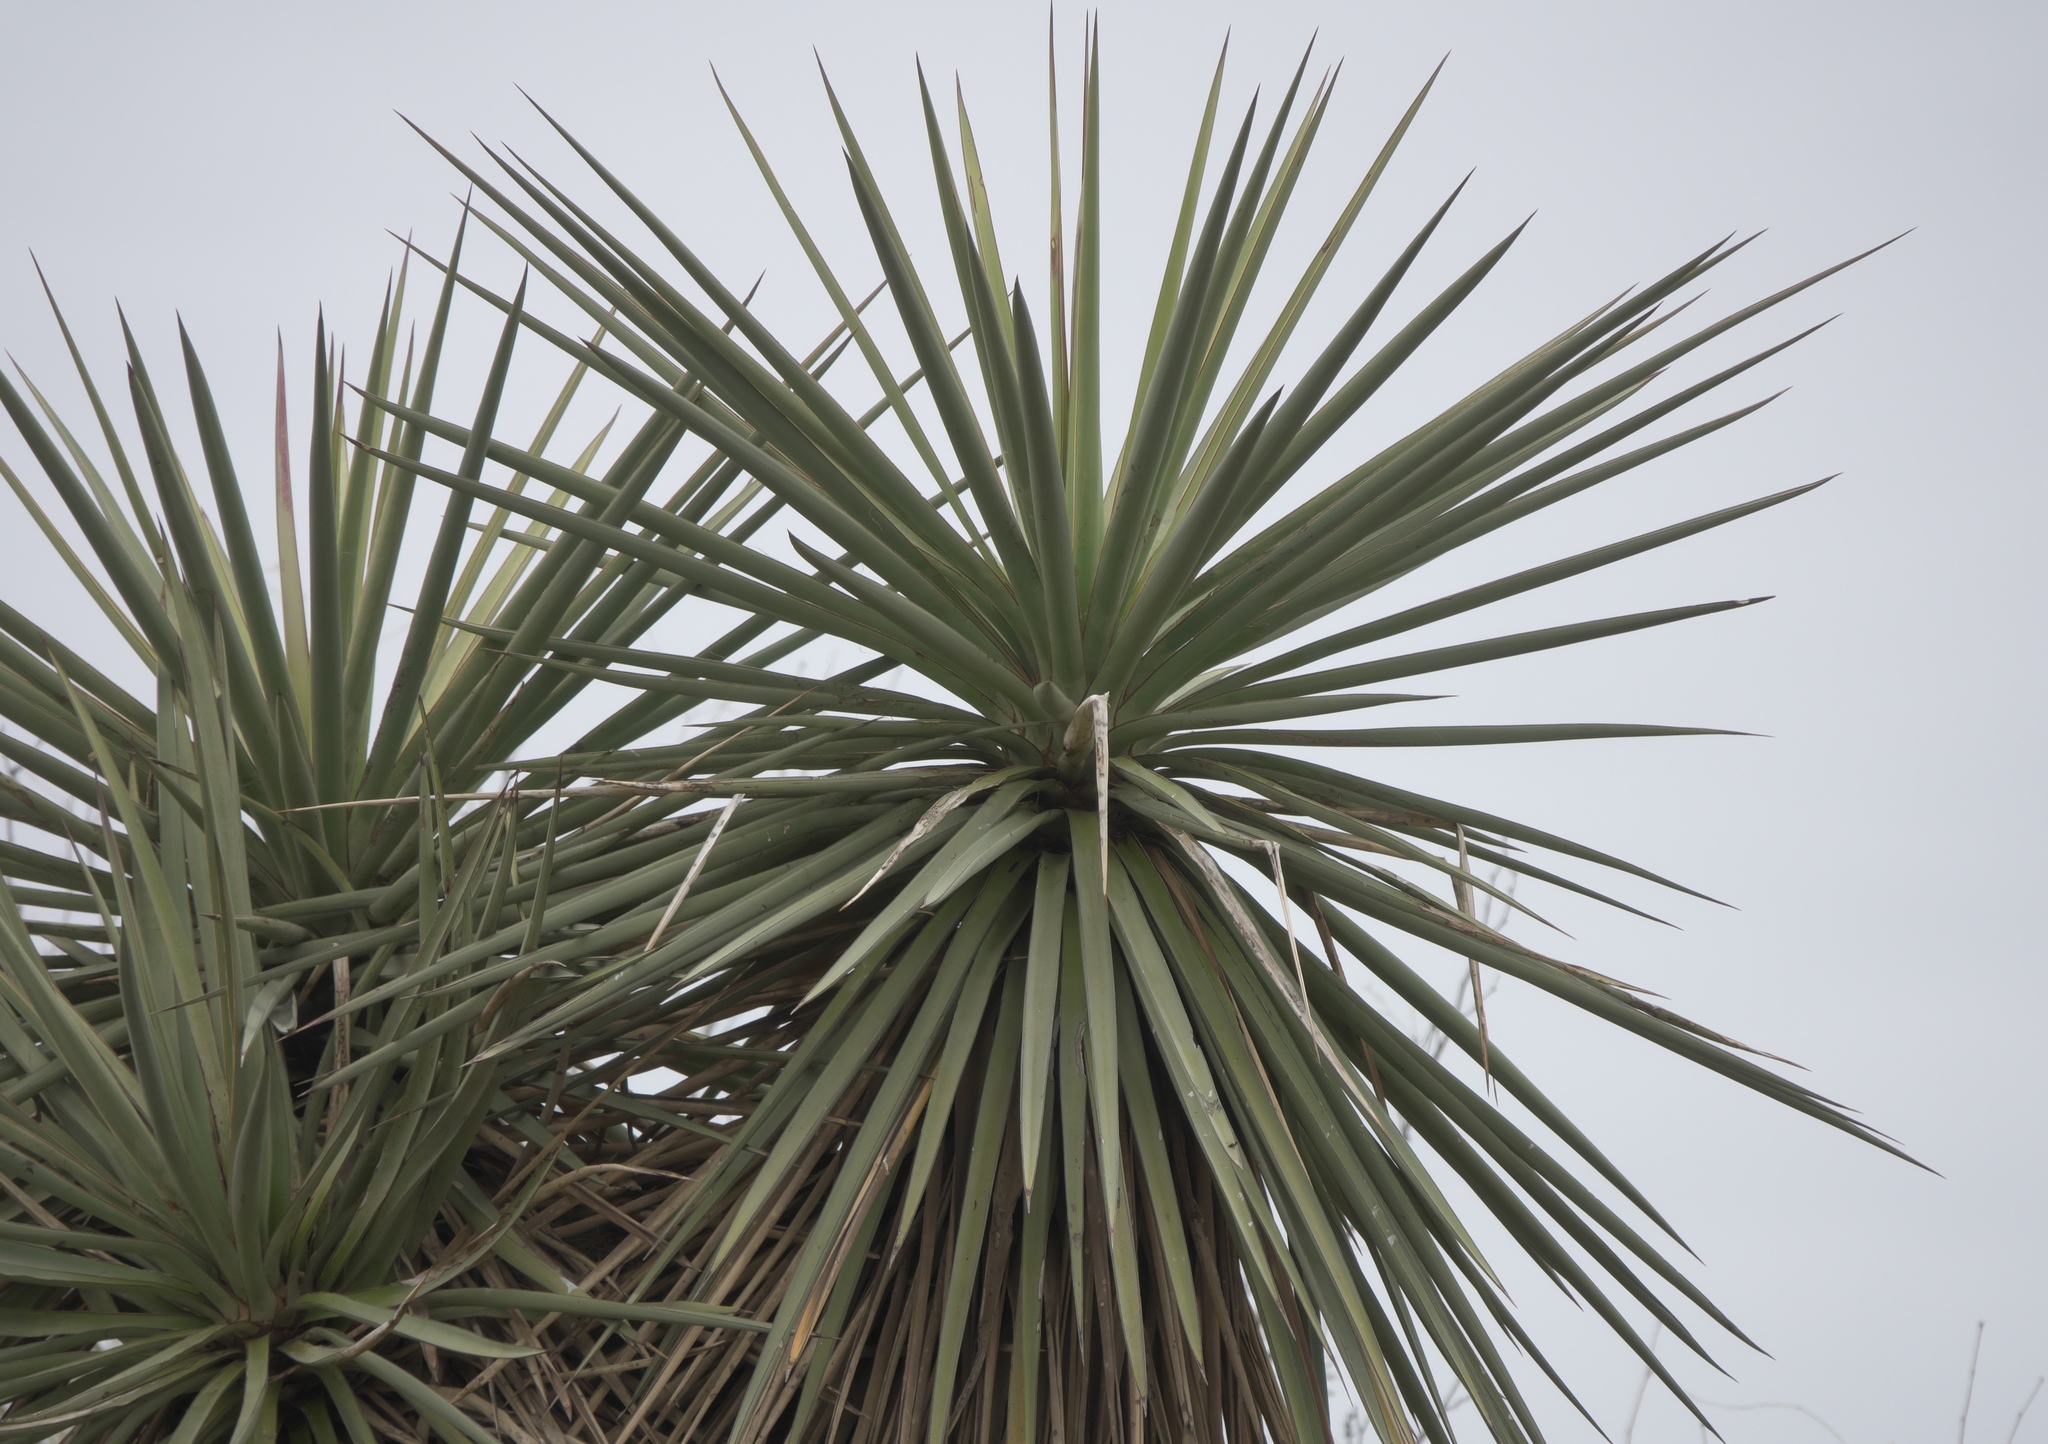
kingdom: Plantae
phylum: Tracheophyta
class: Liliopsida
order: Asparagales
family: Asparagaceae
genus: Yucca
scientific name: Yucca treculiana
